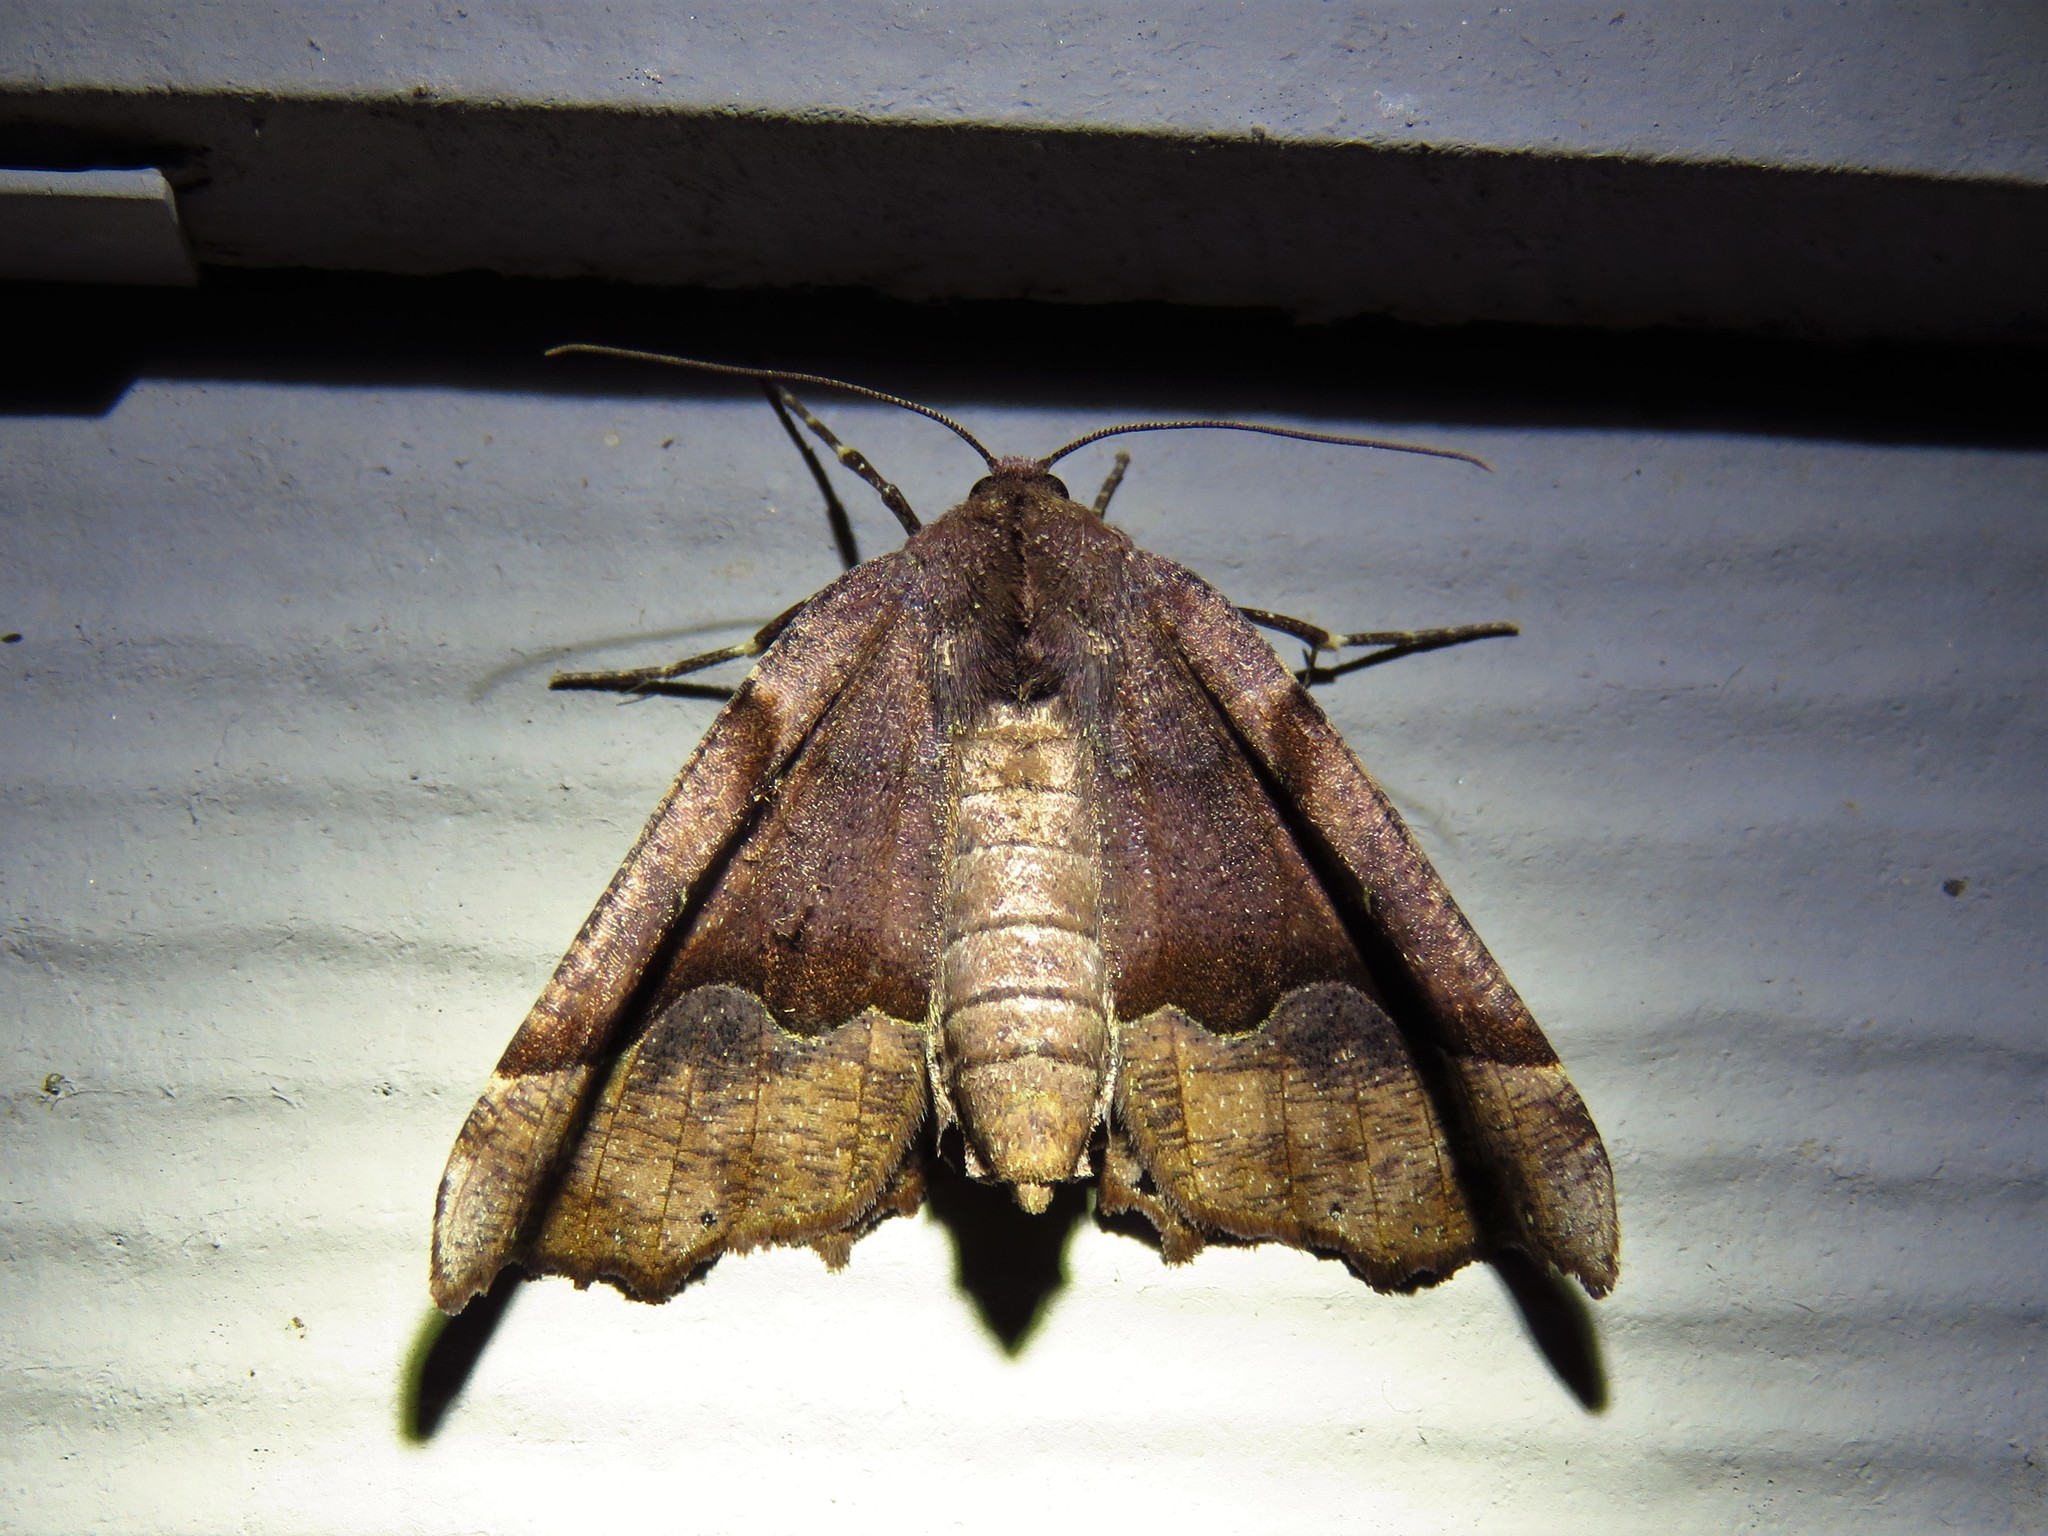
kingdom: Animalia
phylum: Arthropoda
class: Insecta
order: Lepidoptera
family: Geometridae
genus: Pero
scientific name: Pero ancetaria
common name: Hübner's pero
